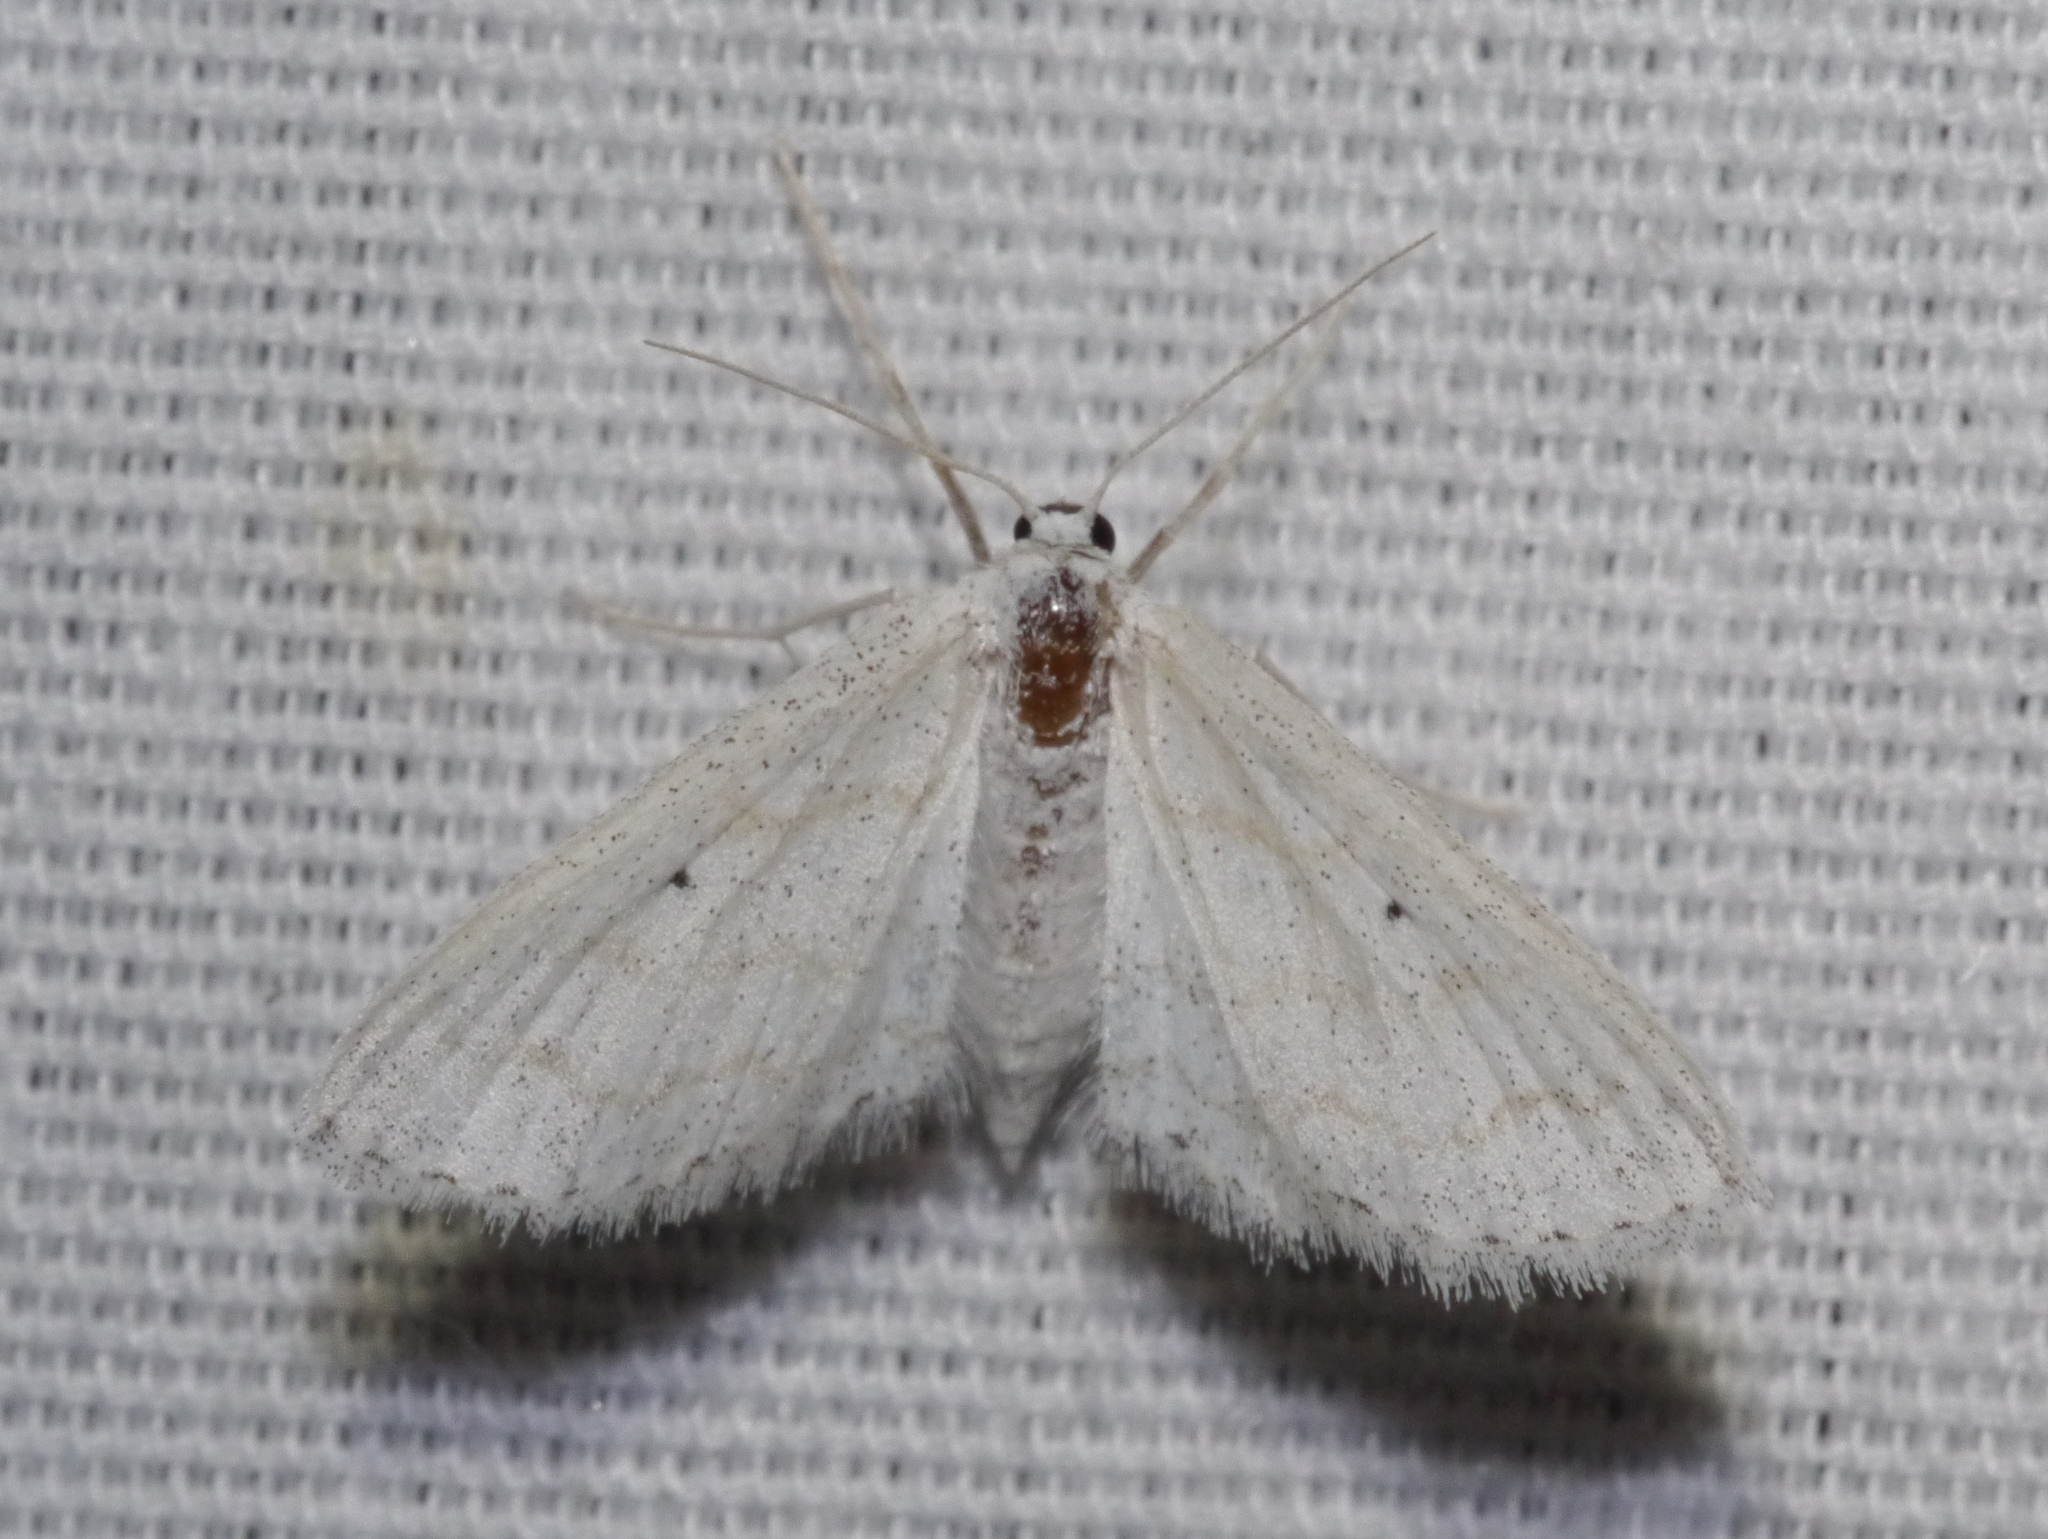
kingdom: Animalia
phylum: Arthropoda
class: Insecta
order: Lepidoptera
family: Geometridae
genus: Lobocleta
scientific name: Lobocleta peralbata
